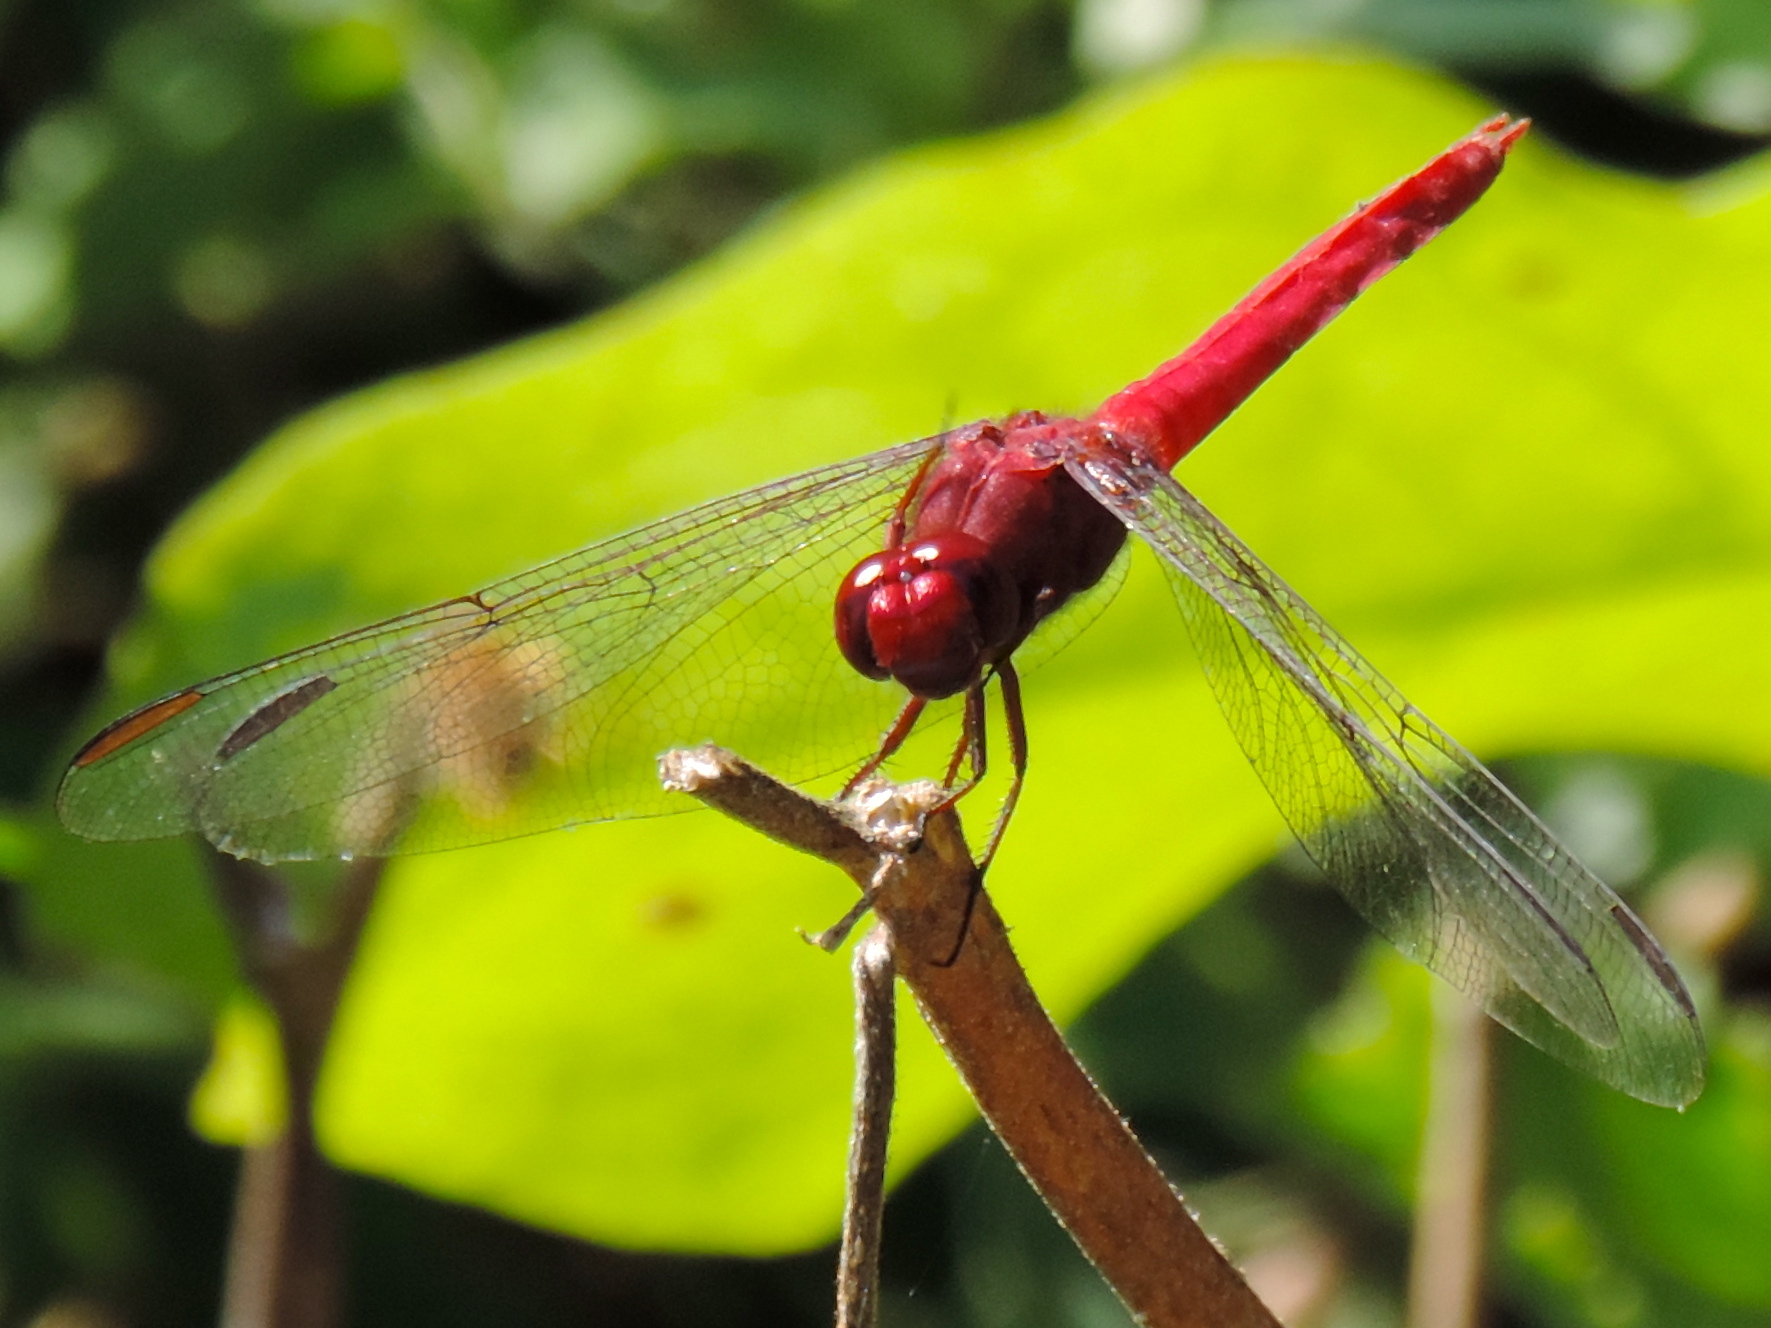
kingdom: Animalia
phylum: Arthropoda
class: Insecta
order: Odonata
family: Libellulidae
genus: Orthemis
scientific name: Orthemis
